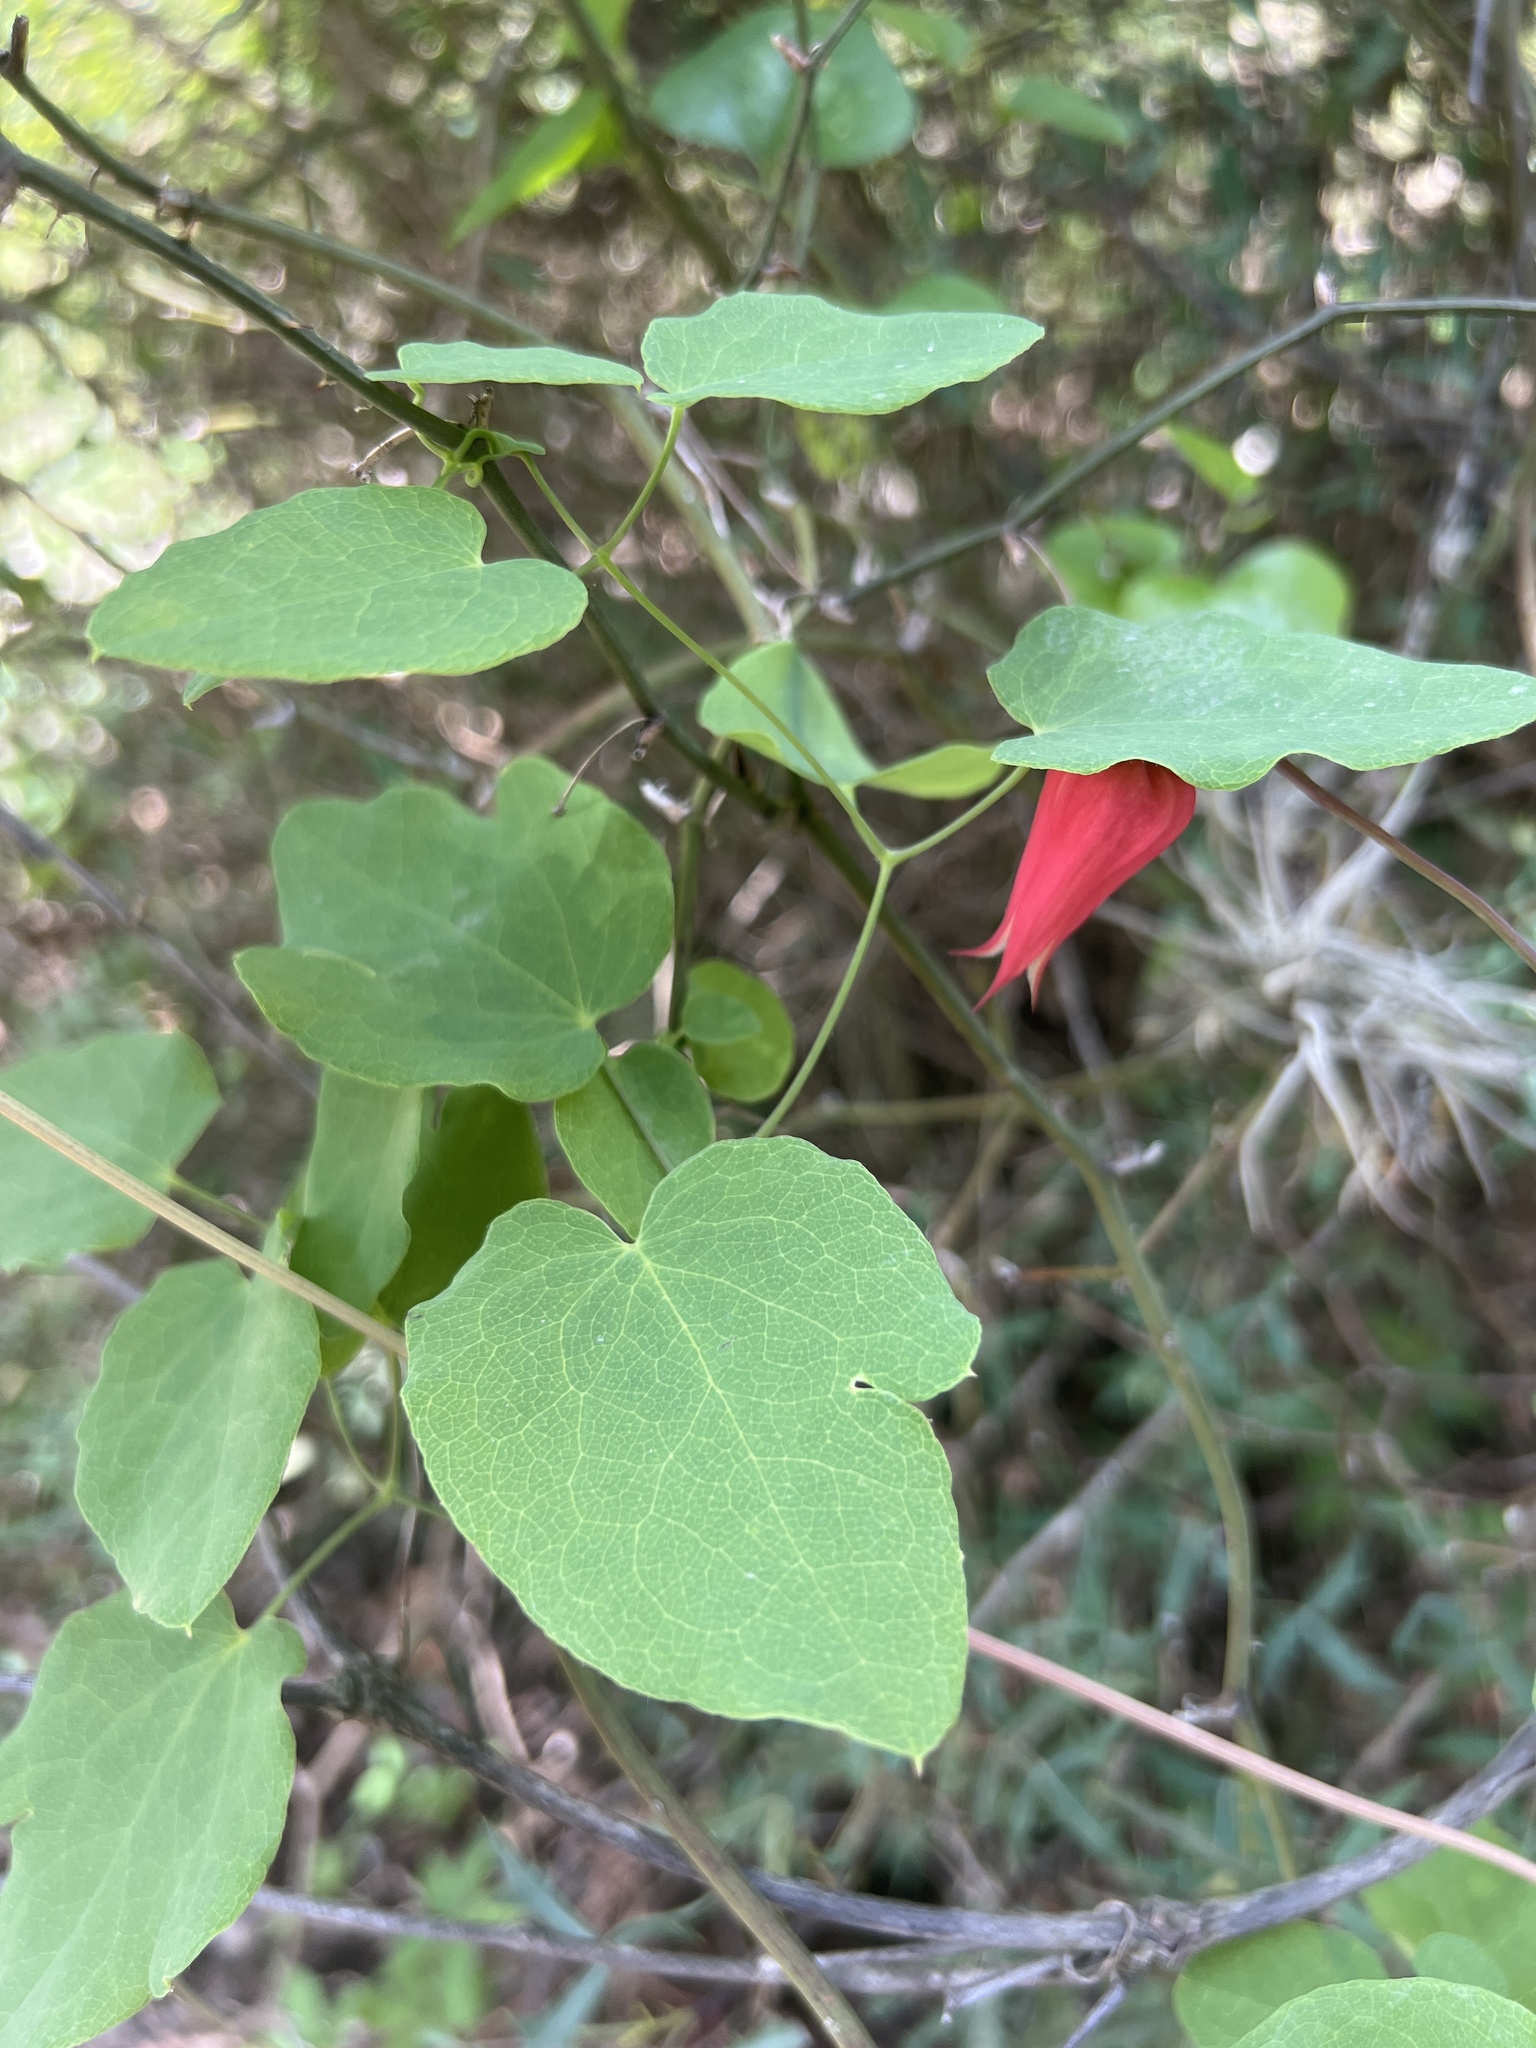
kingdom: Plantae
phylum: Tracheophyta
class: Magnoliopsida
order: Ranunculales
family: Ranunculaceae
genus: Clematis
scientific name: Clematis texensis
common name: Crimson clematis
